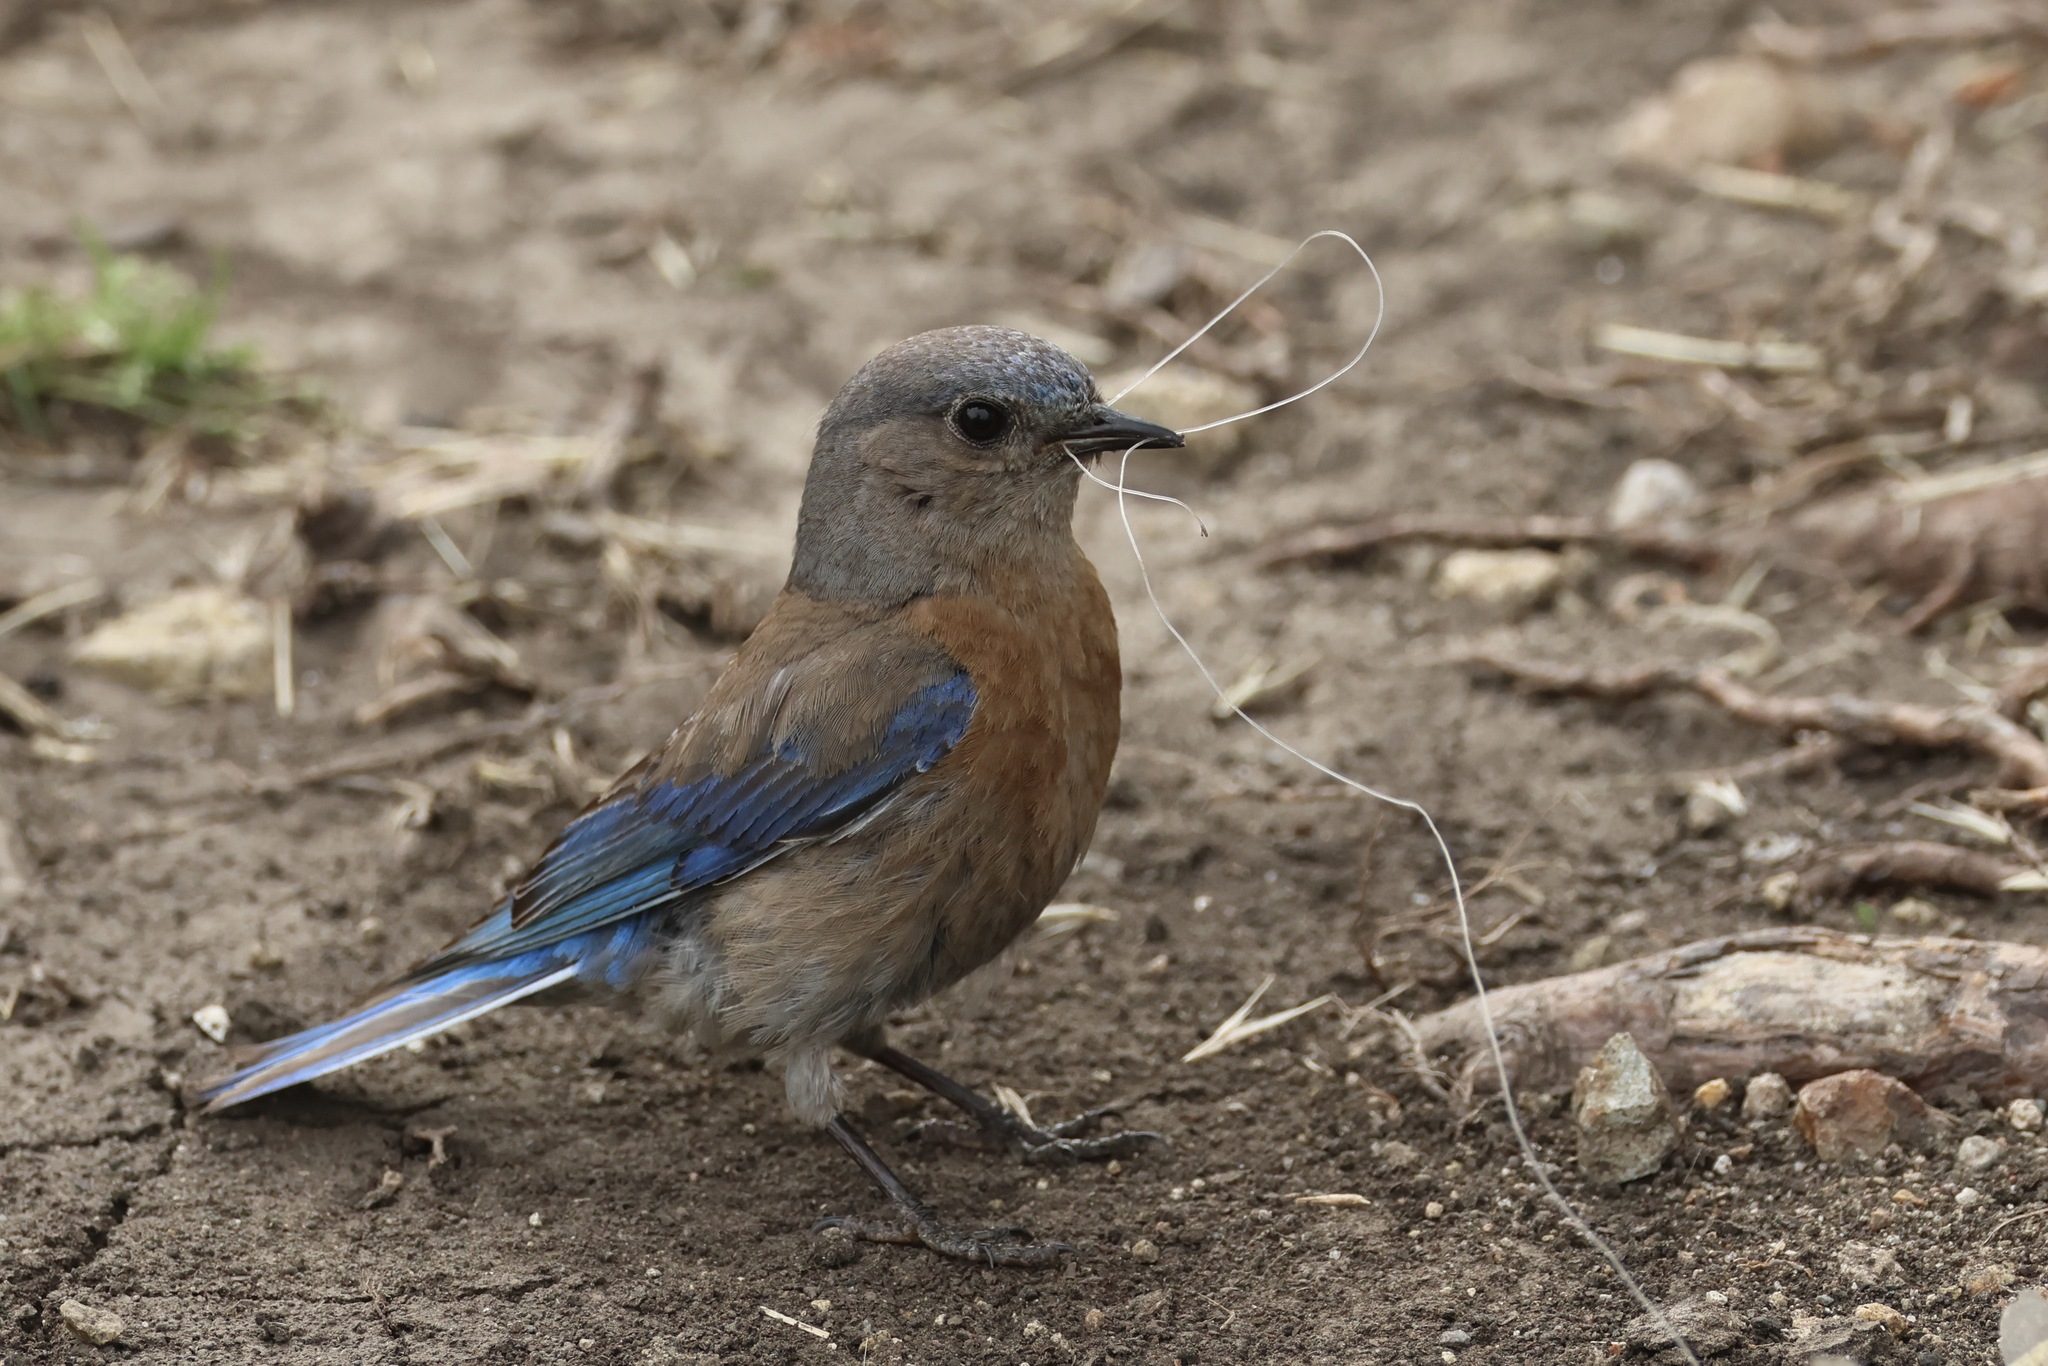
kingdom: Animalia
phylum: Chordata
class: Aves
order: Passeriformes
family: Turdidae
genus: Sialia
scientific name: Sialia mexicana
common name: Western bluebird
